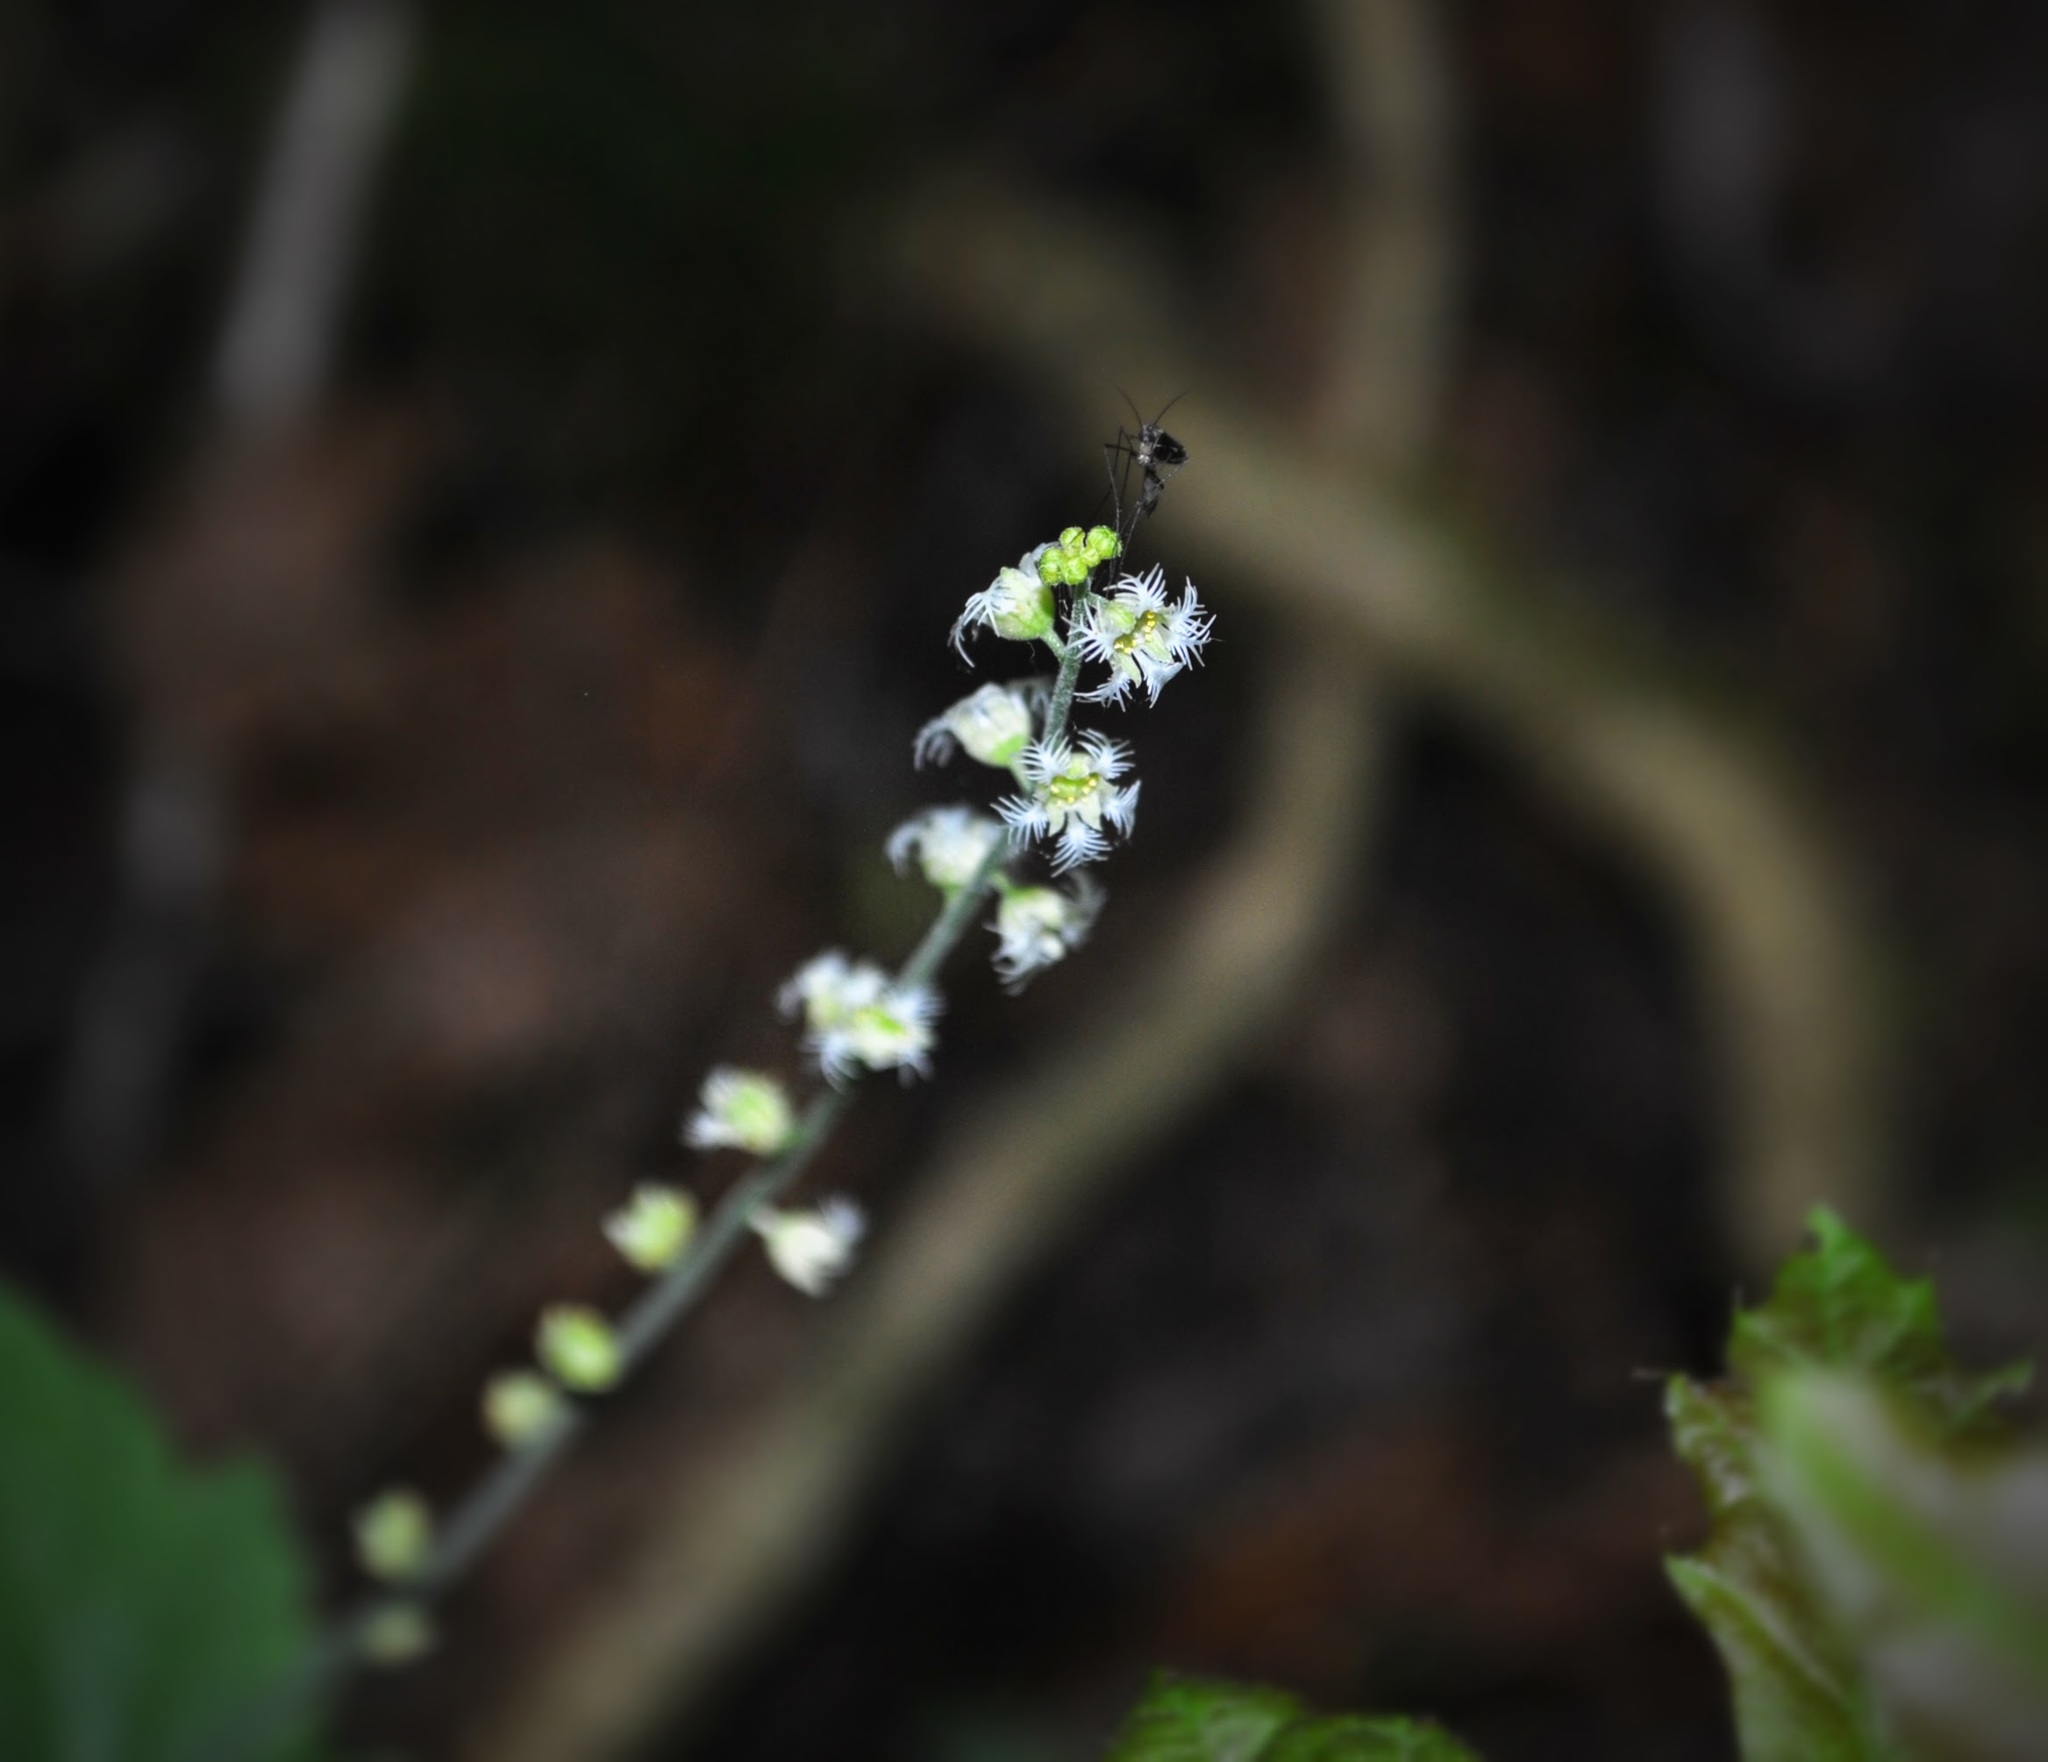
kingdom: Plantae
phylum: Tracheophyta
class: Magnoliopsida
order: Saxifragales
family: Saxifragaceae
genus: Mitella
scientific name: Mitella diphylla
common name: Coolwort
